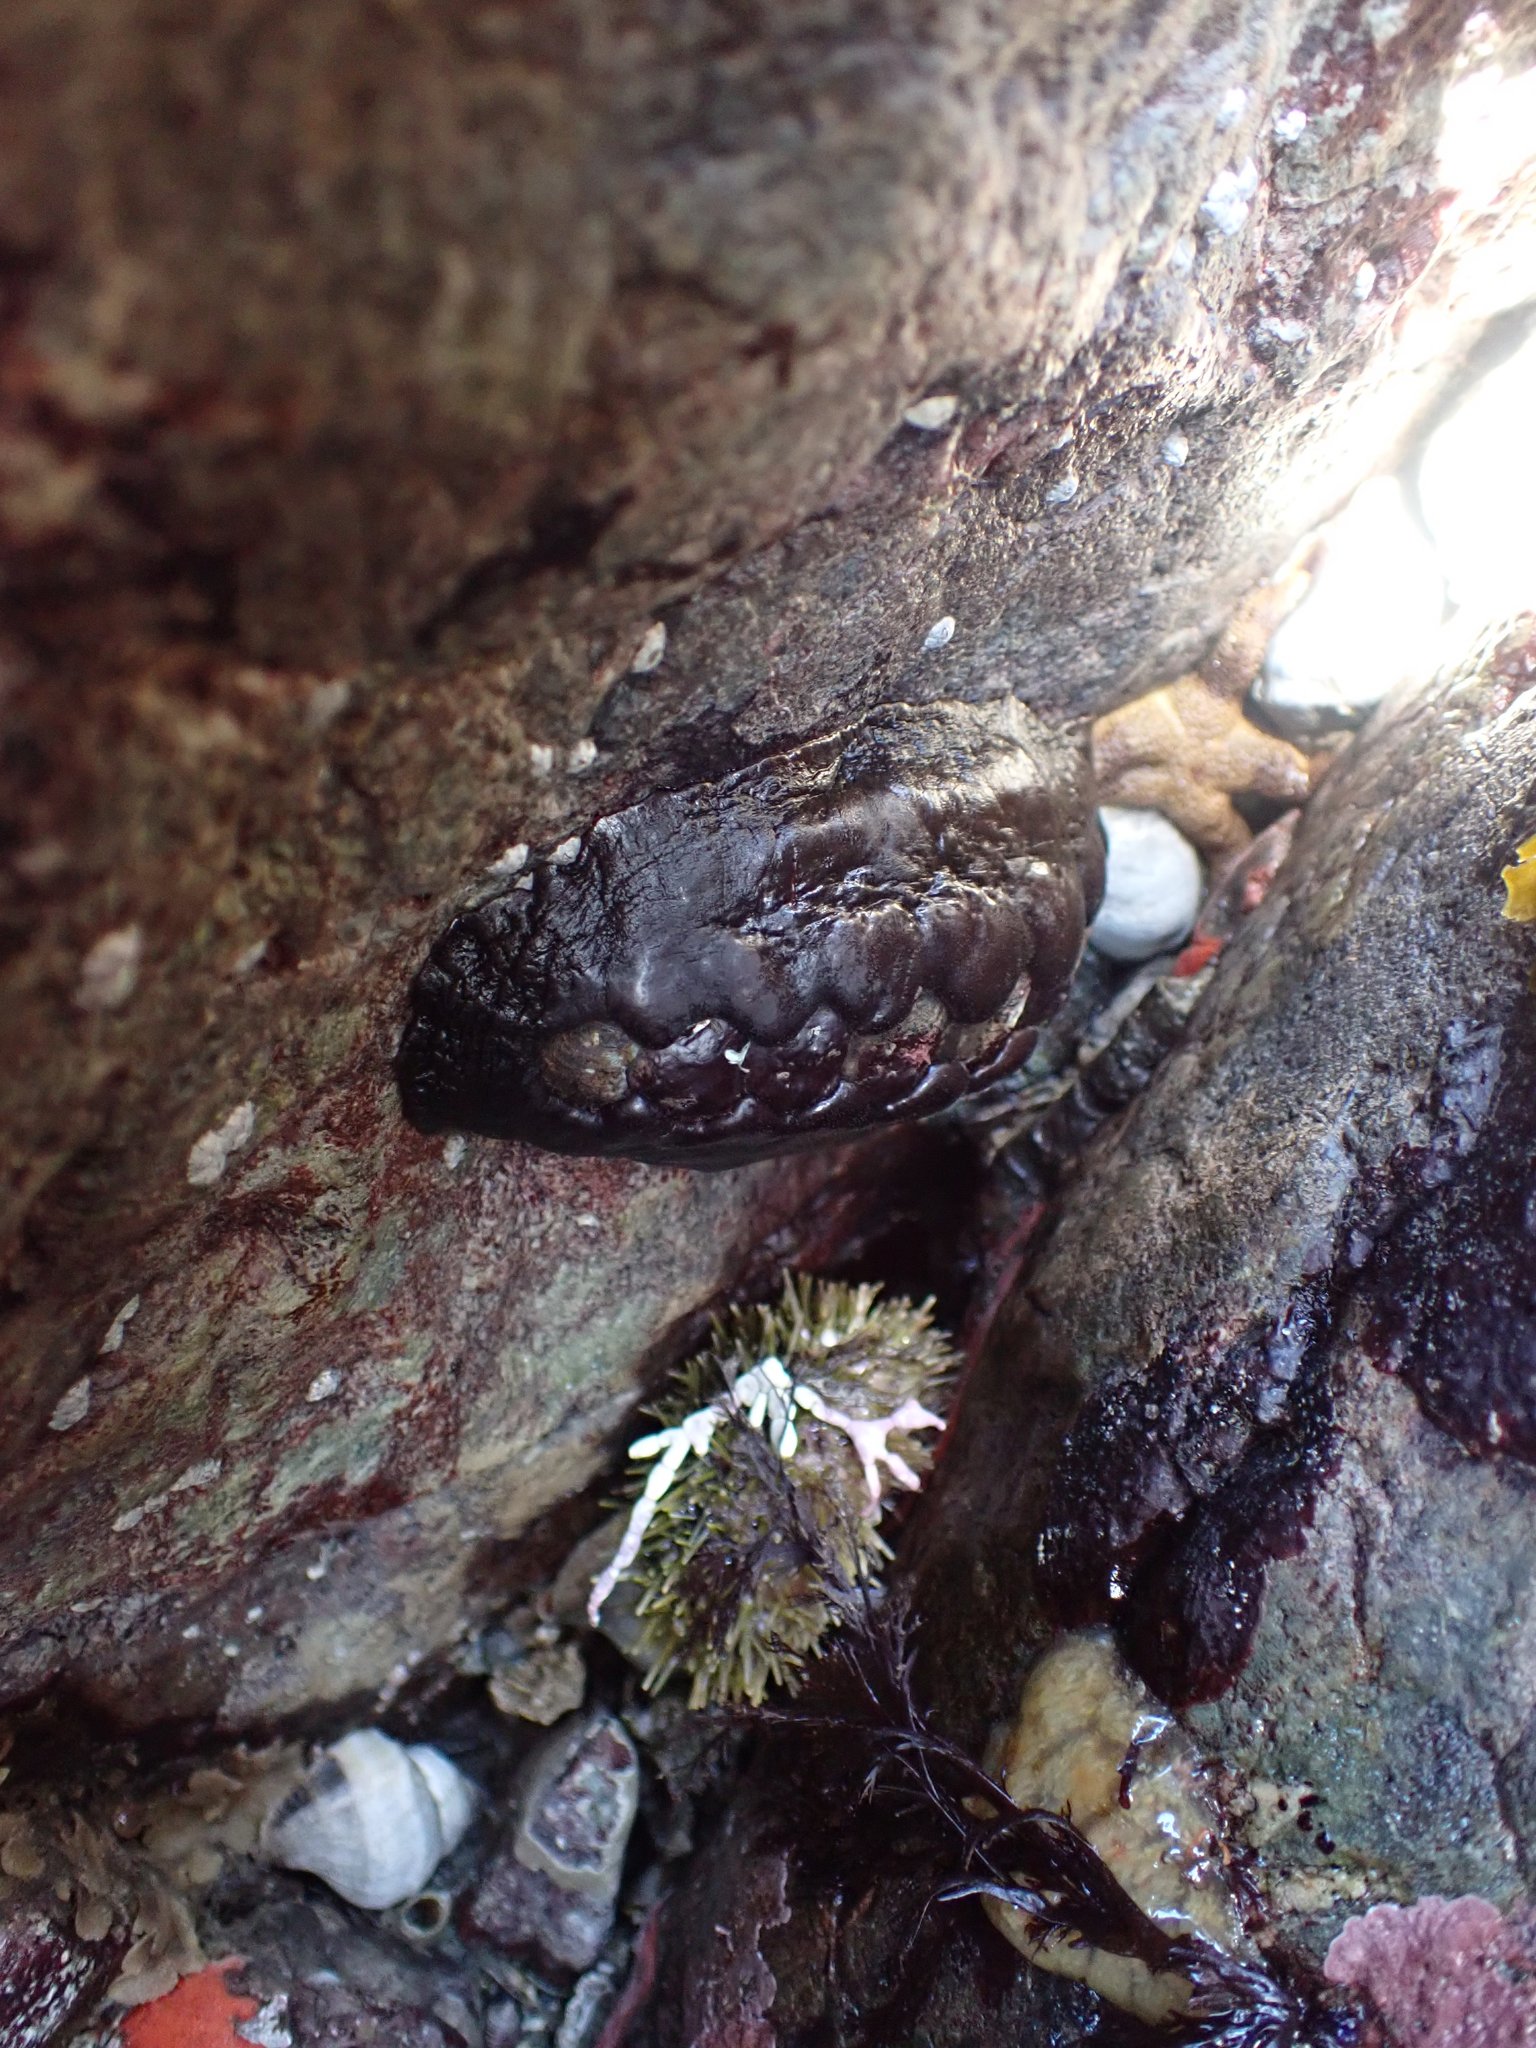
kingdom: Animalia
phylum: Mollusca
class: Polyplacophora
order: Chitonida
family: Mopaliidae
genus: Katharina
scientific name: Katharina tunicata
